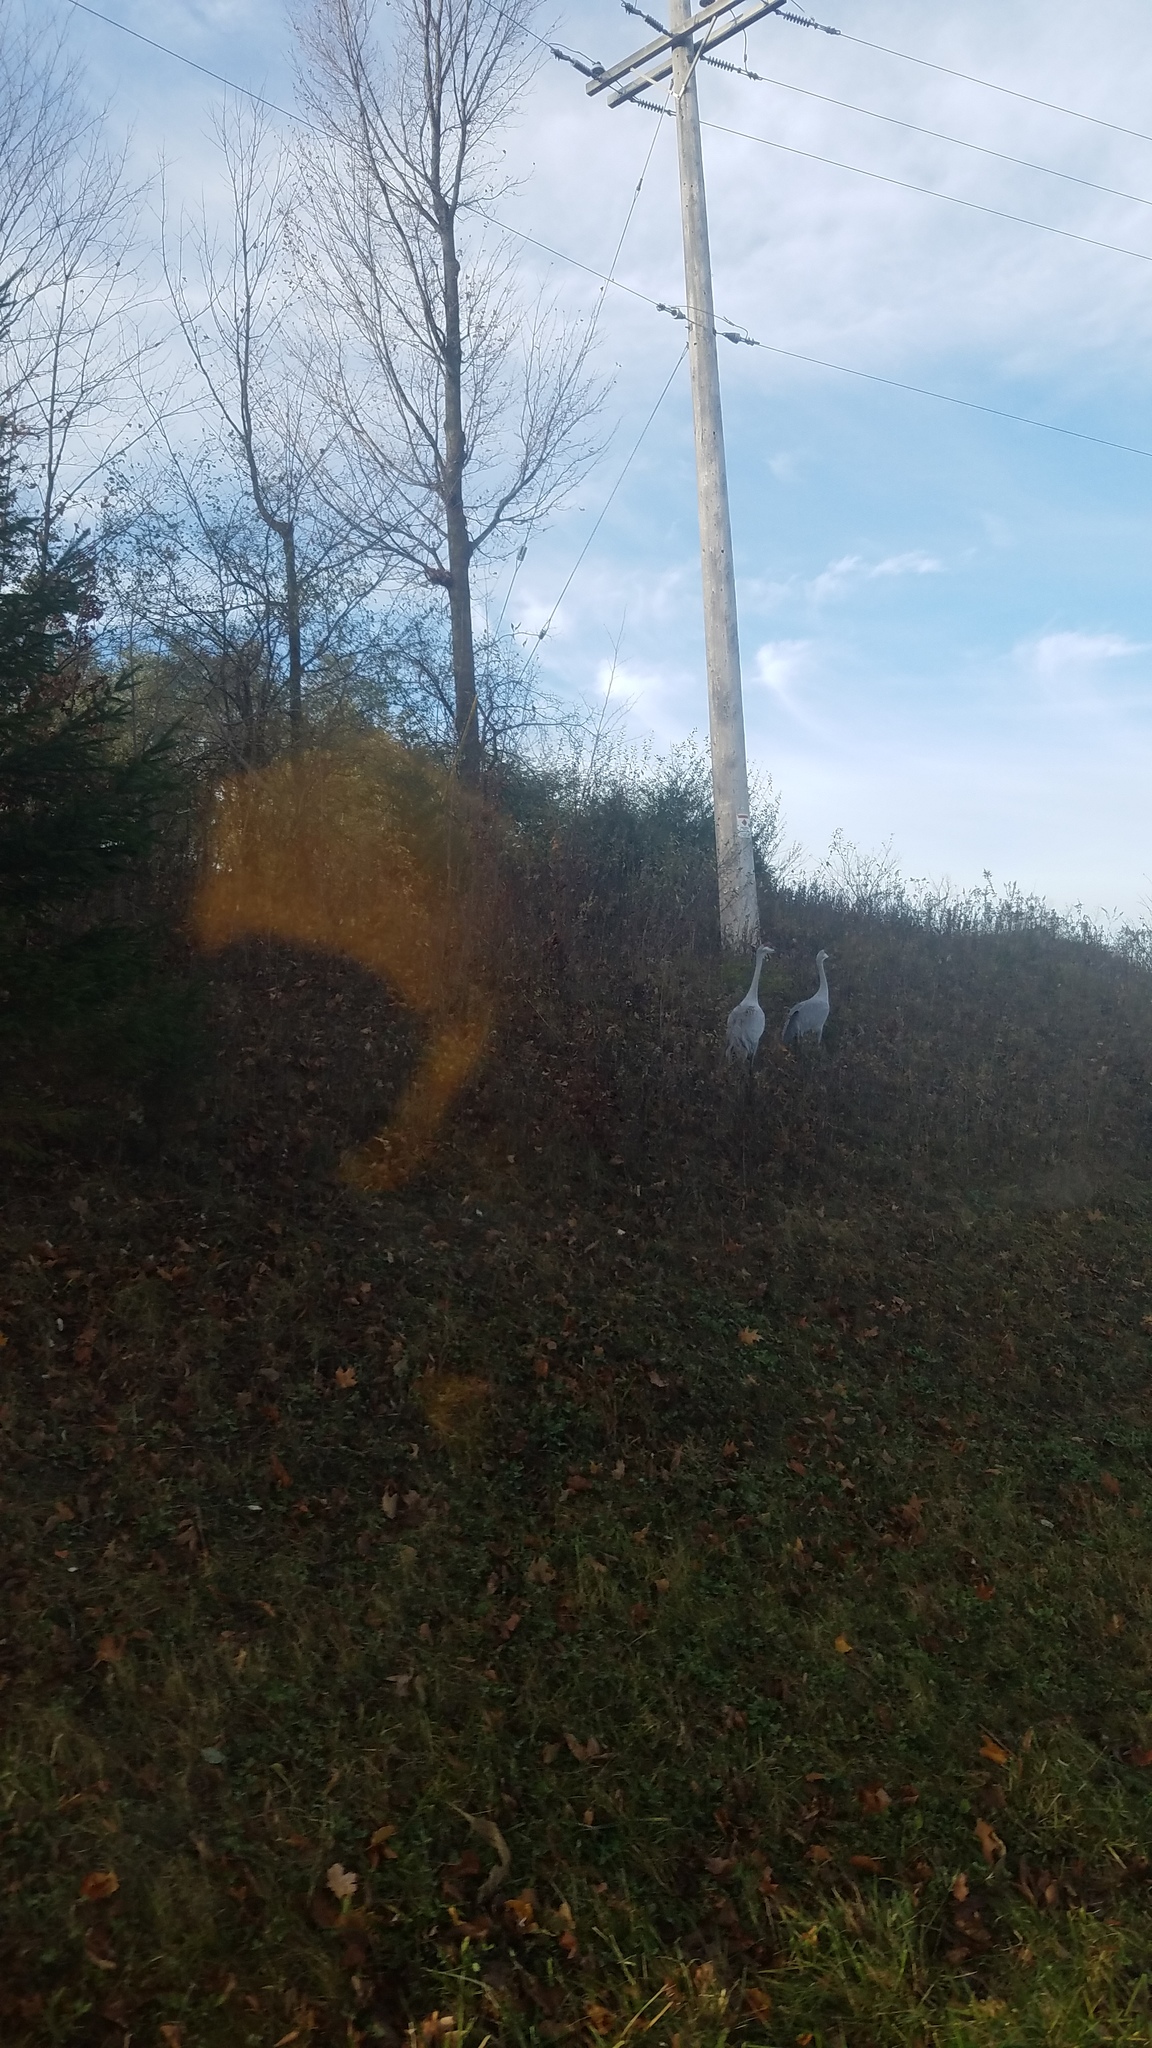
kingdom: Animalia
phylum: Chordata
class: Aves
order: Gruiformes
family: Gruidae
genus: Grus
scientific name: Grus canadensis
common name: Sandhill crane
